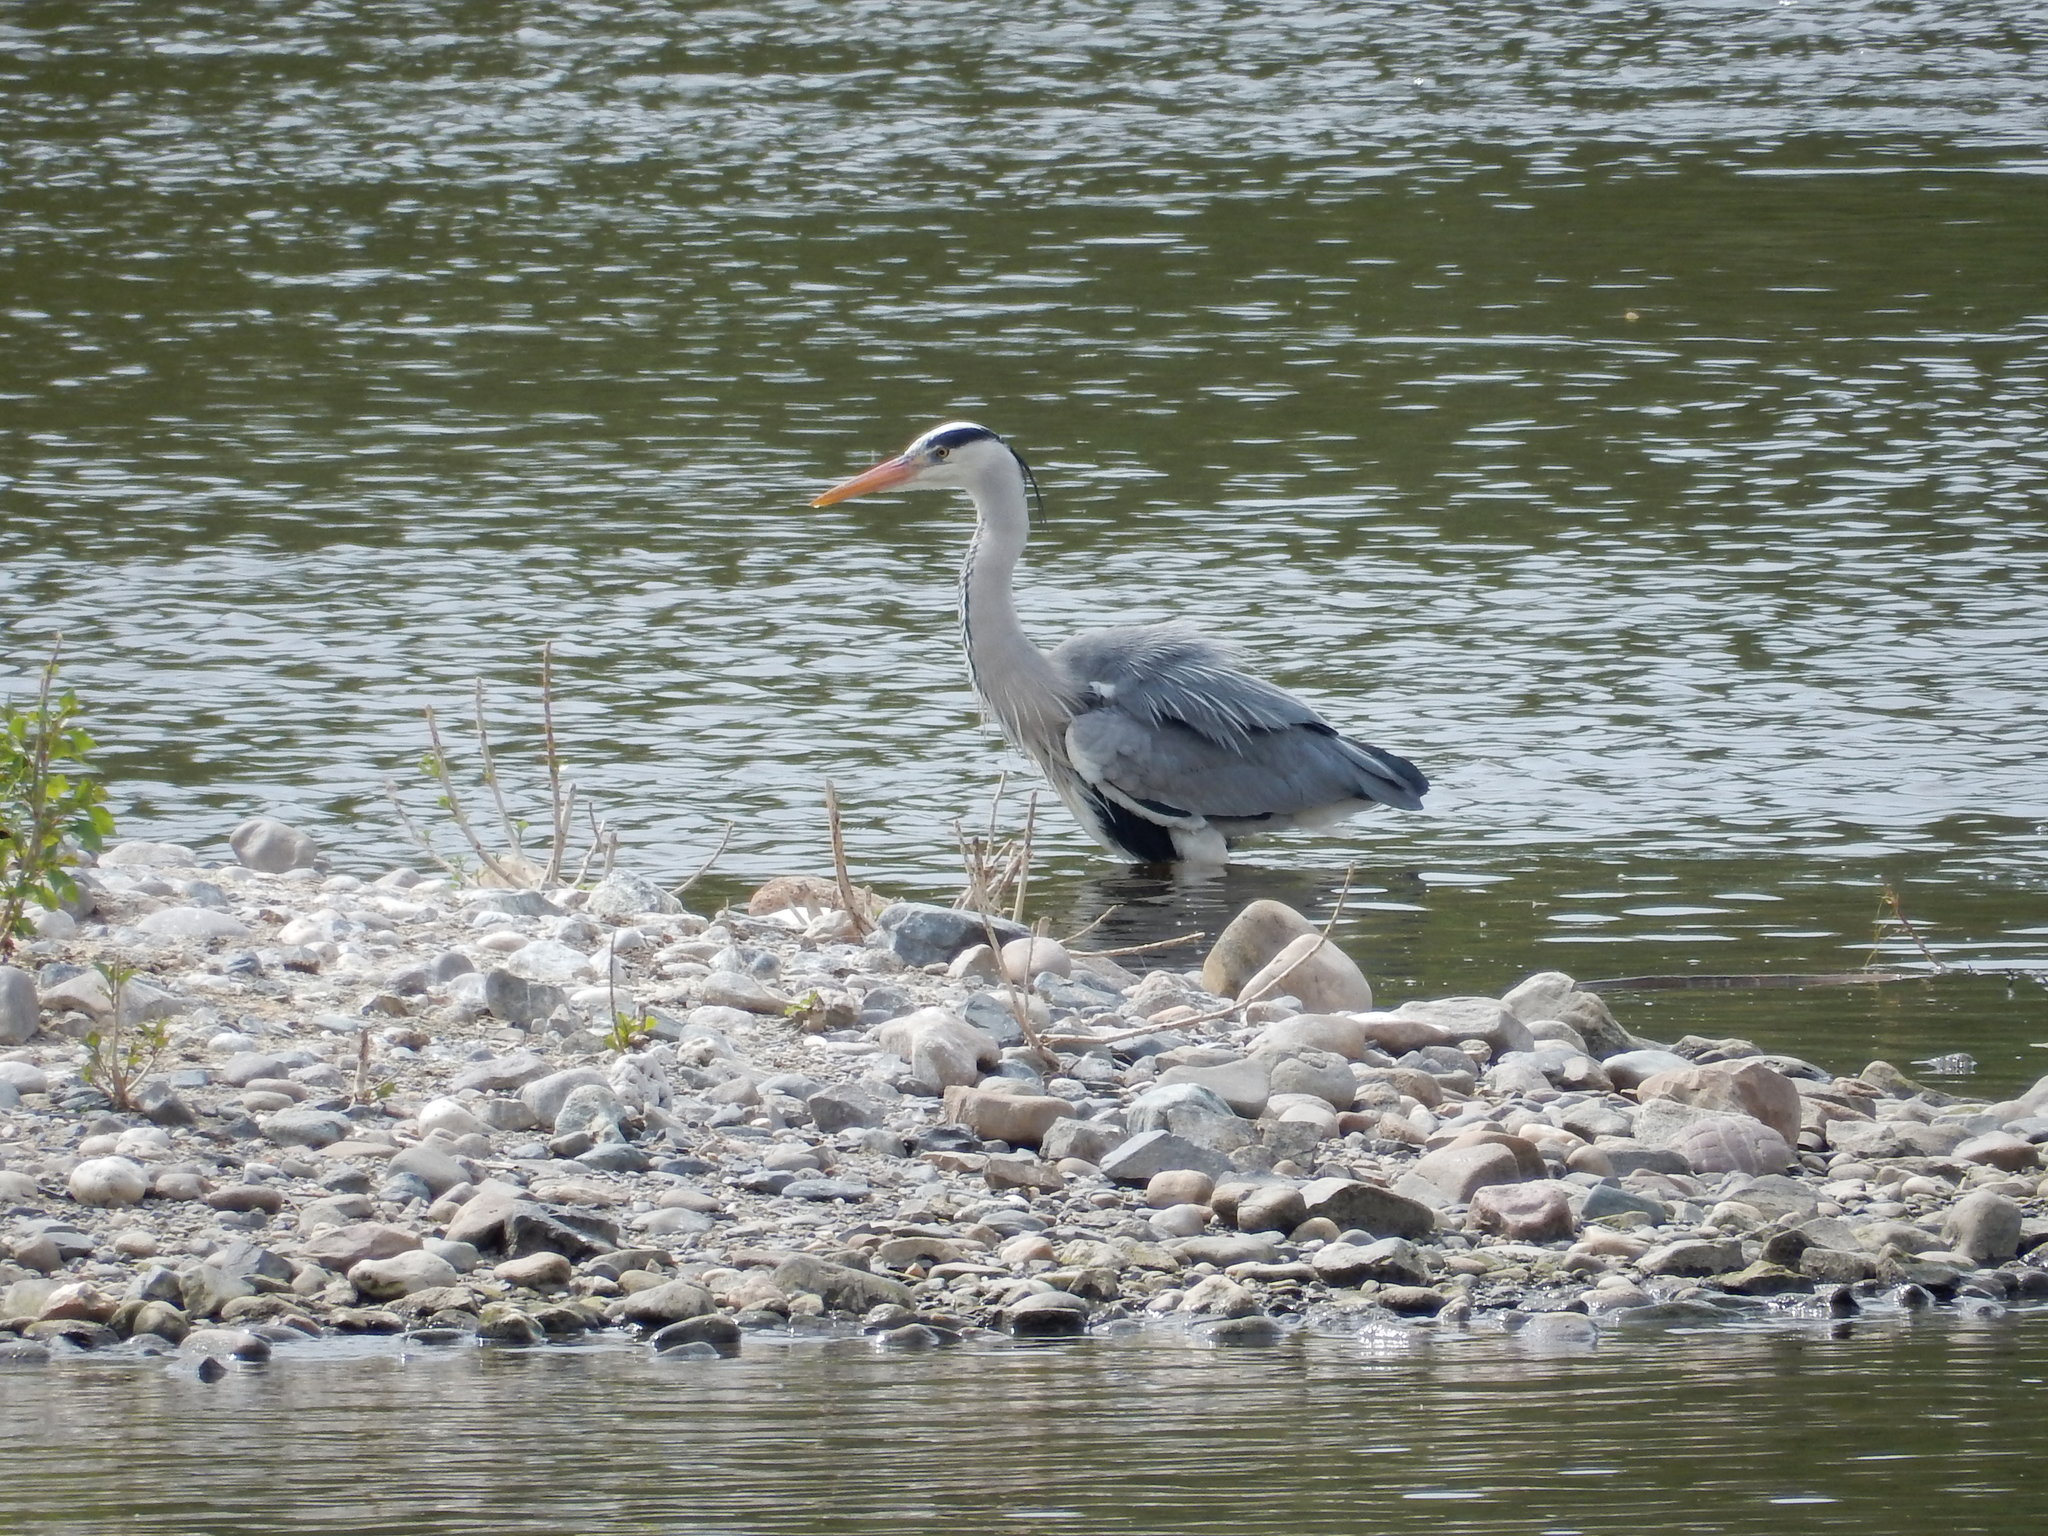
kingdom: Animalia
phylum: Chordata
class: Aves
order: Pelecaniformes
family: Ardeidae
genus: Ardea
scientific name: Ardea cinerea
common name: Grey heron
